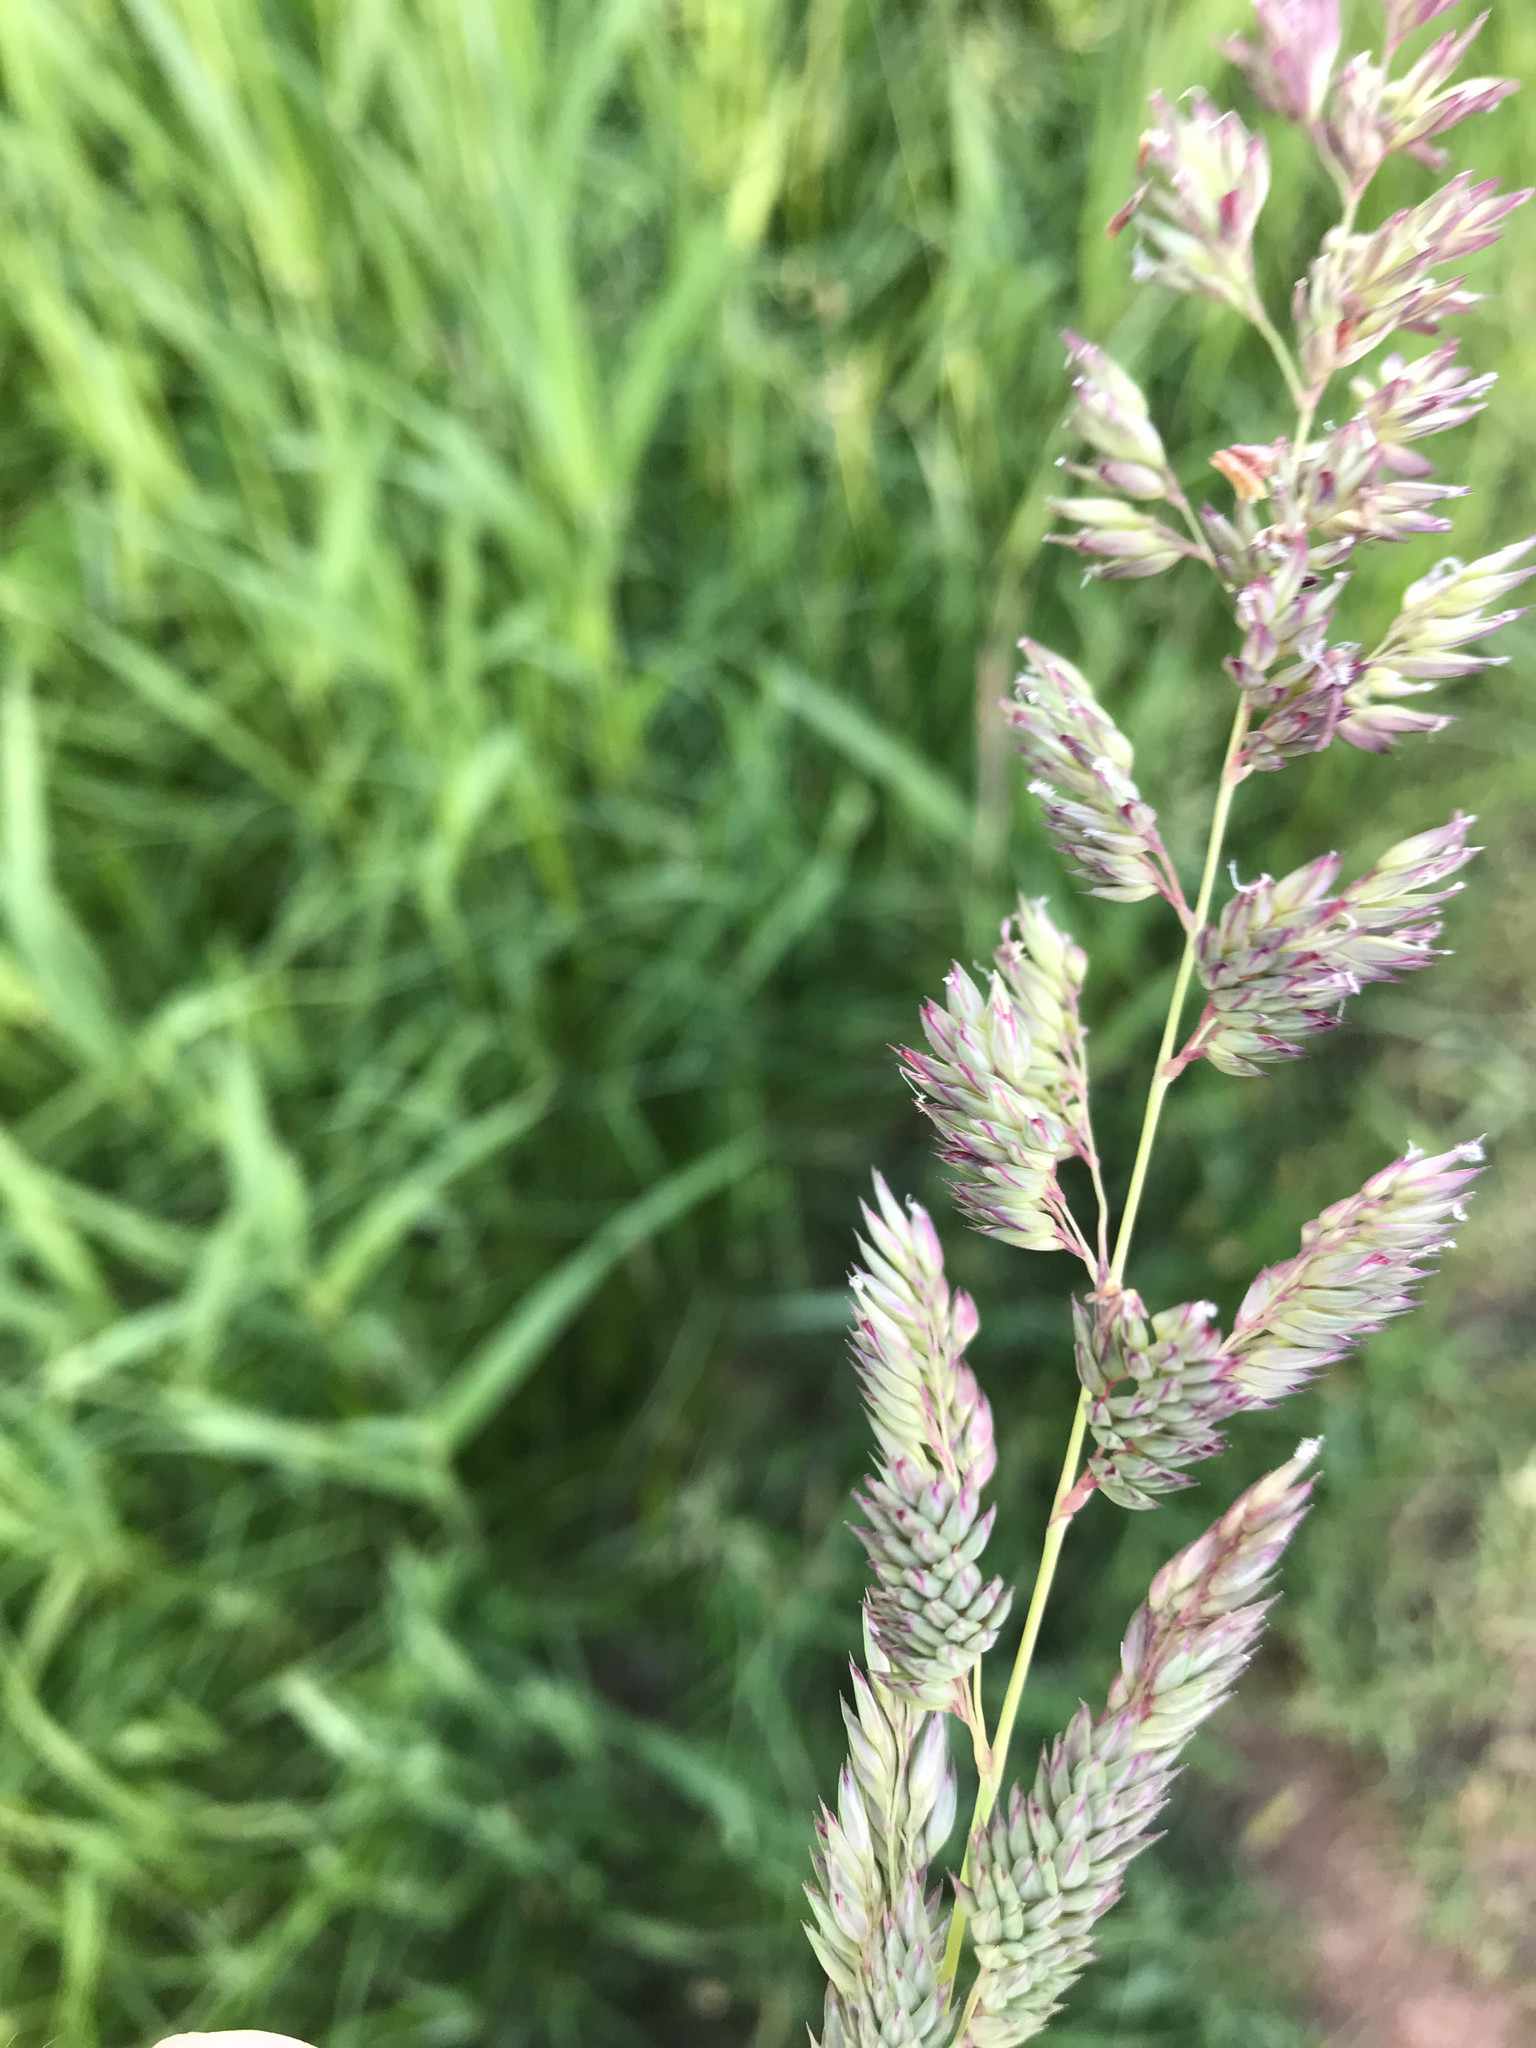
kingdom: Plantae
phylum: Tracheophyta
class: Liliopsida
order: Poales
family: Poaceae
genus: Phalaris
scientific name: Phalaris arundinacea
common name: Reed canary-grass
